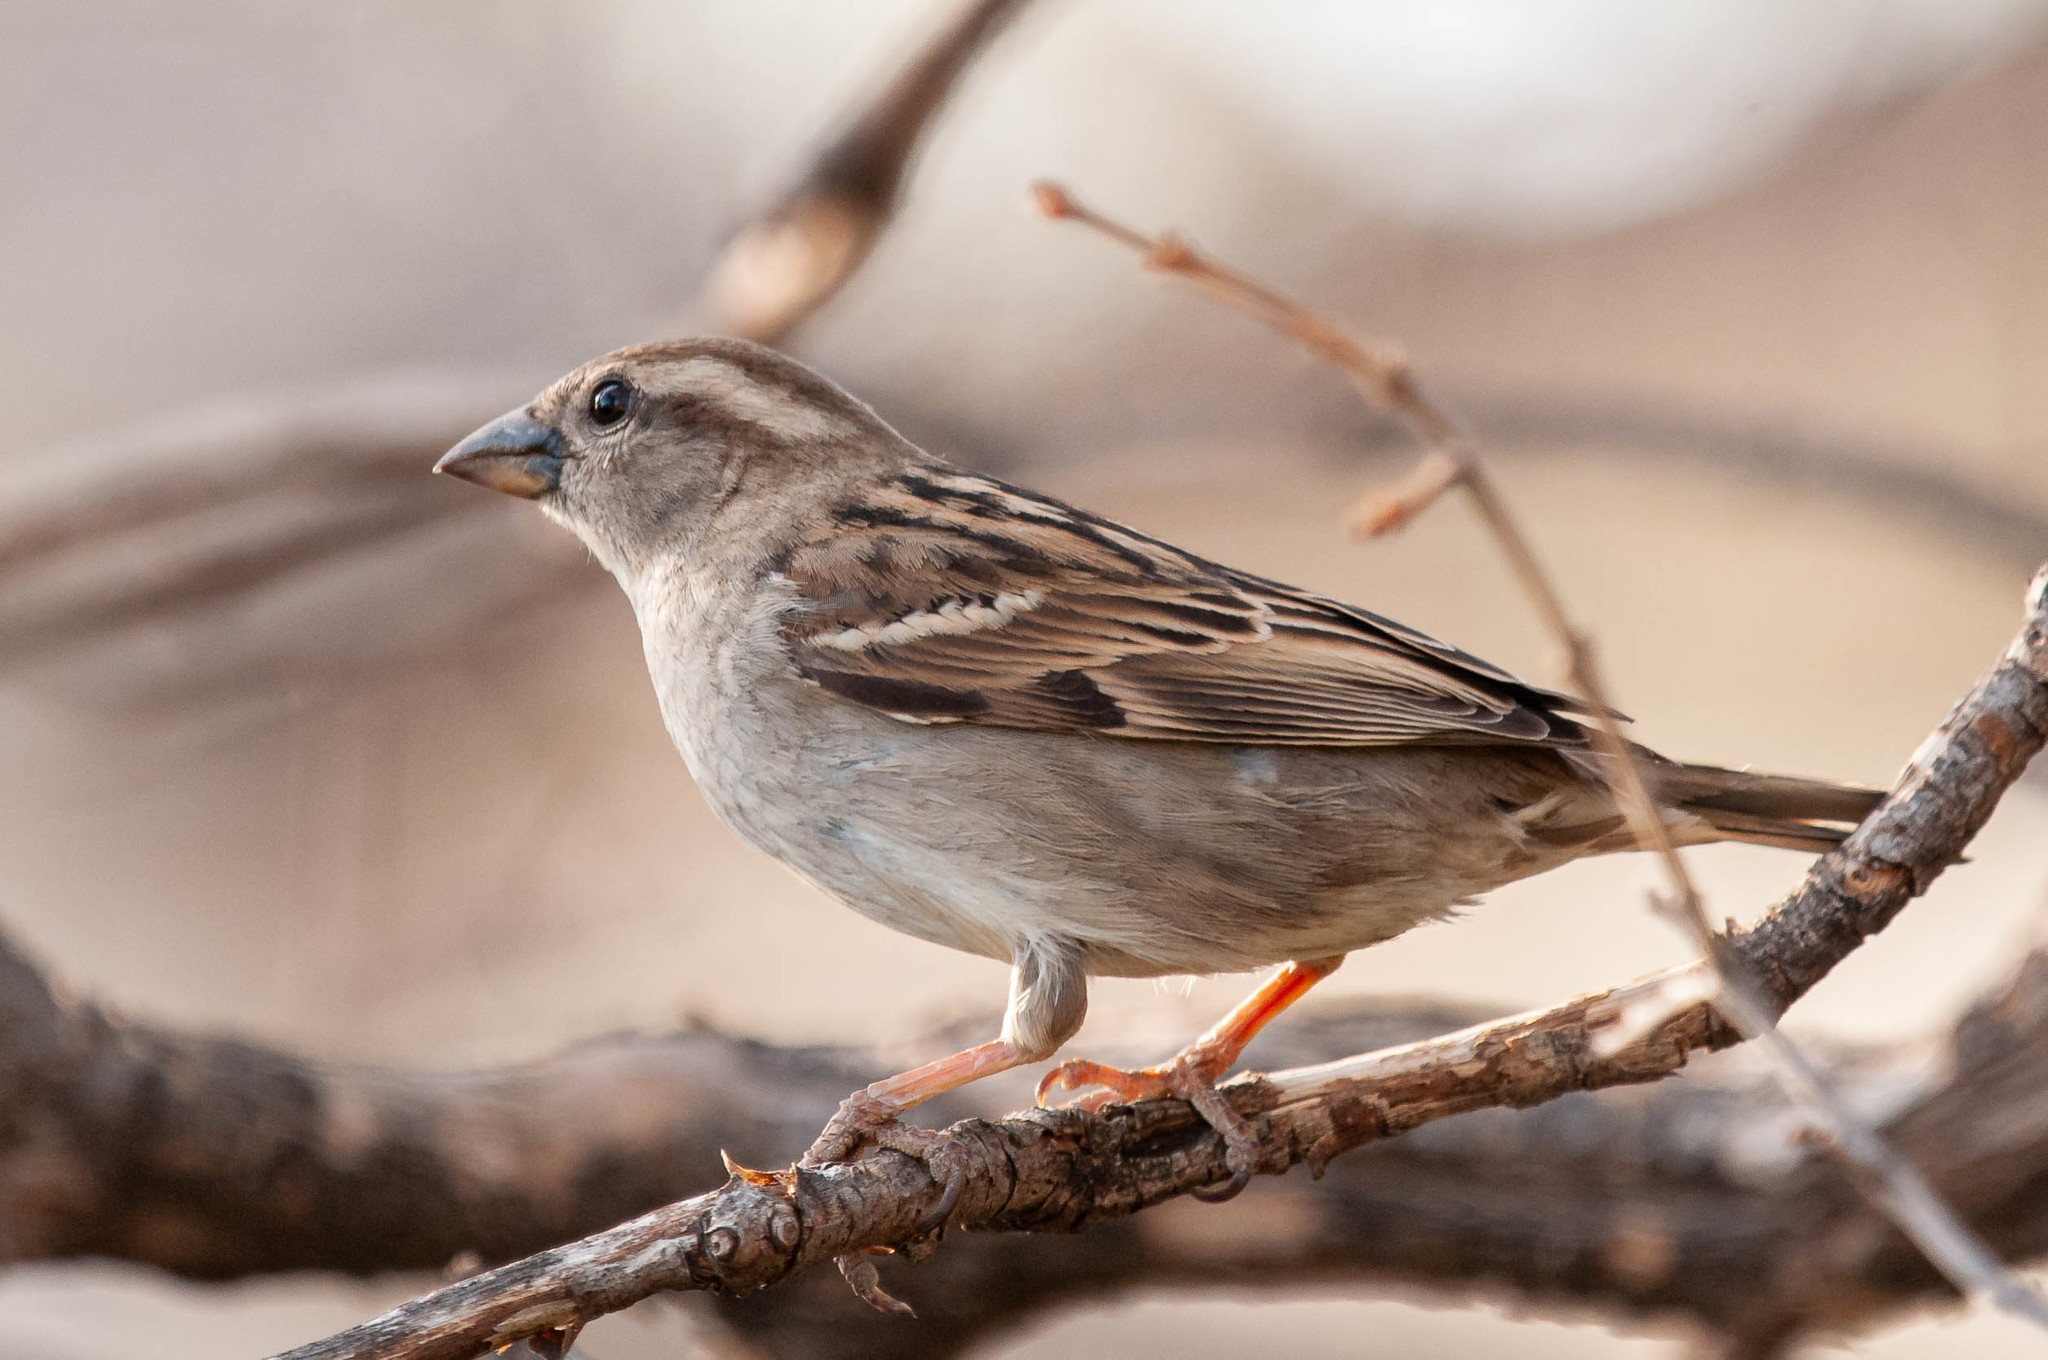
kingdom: Animalia
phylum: Chordata
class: Aves
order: Passeriformes
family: Passeridae
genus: Passer
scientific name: Passer domesticus
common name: House sparrow
